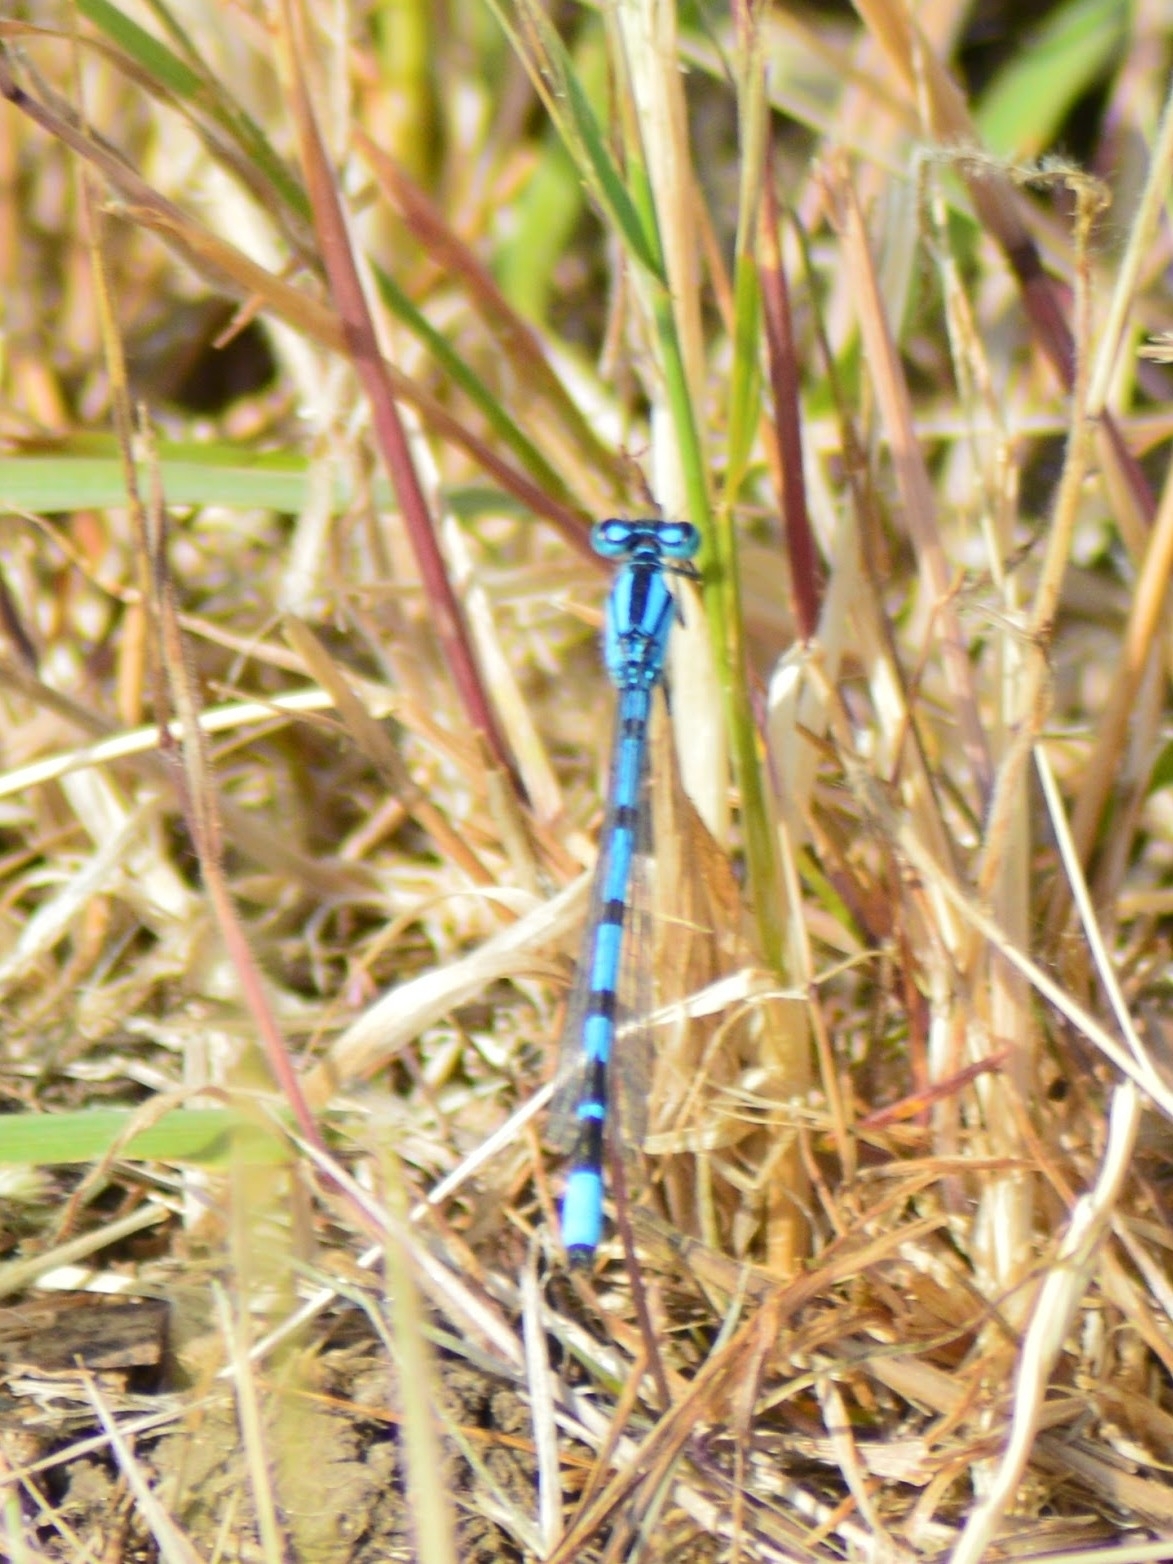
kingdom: Animalia
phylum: Arthropoda
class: Insecta
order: Odonata
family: Coenagrionidae
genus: Enallagma
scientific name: Enallagma cyathigerum
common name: Common blue damselfly
